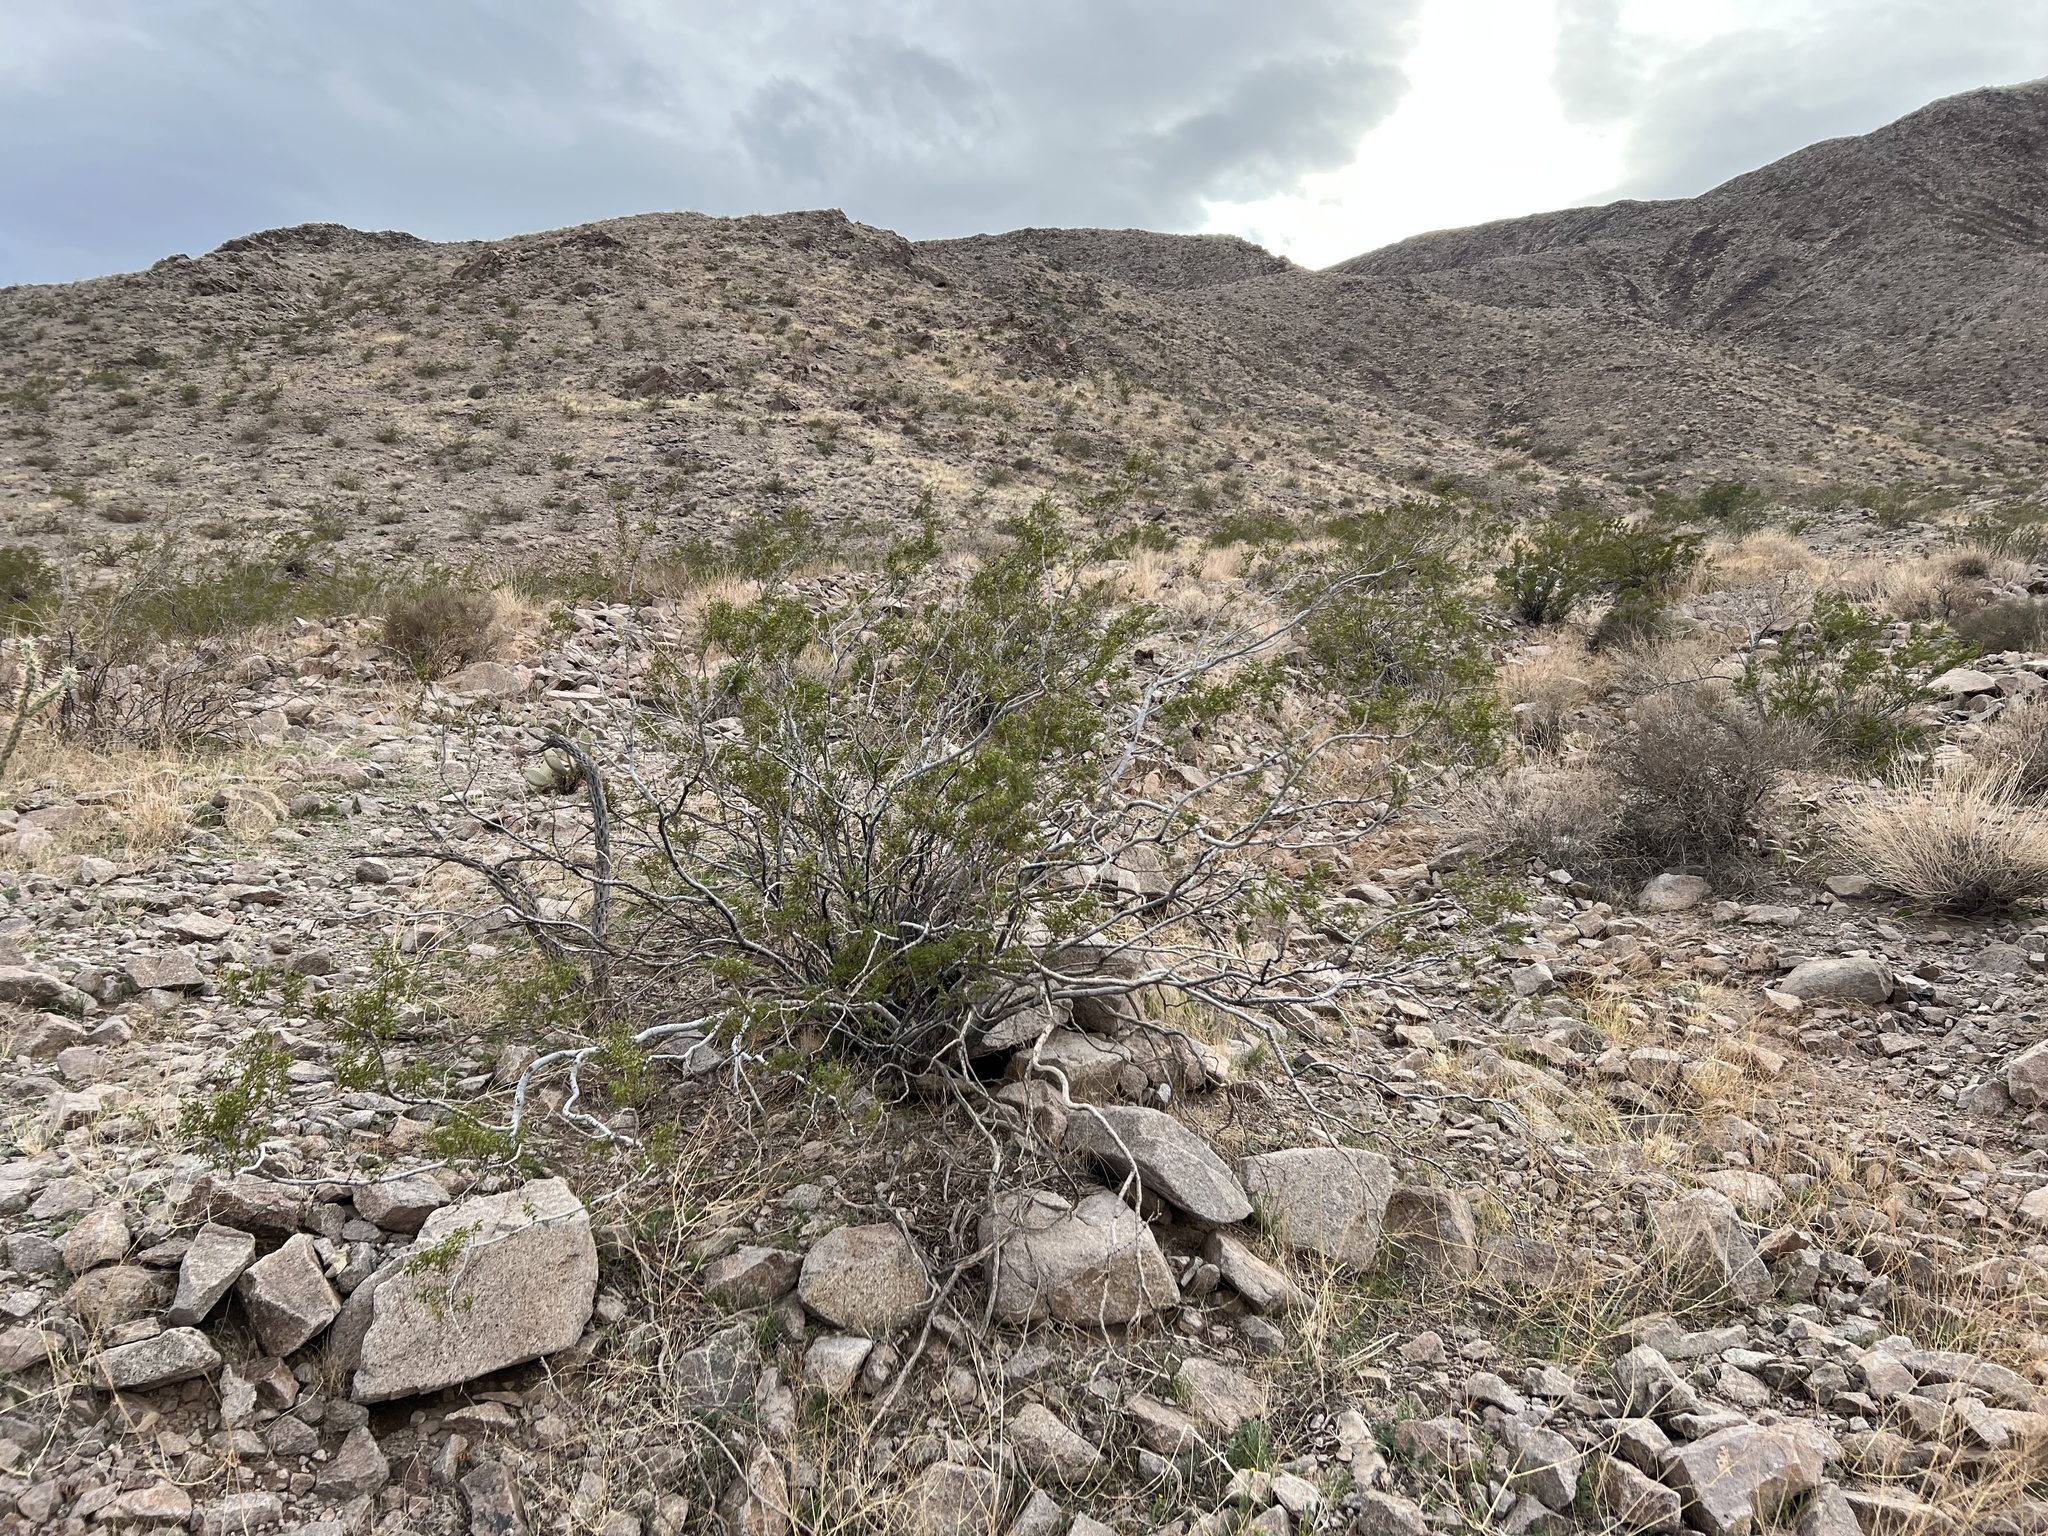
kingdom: Plantae
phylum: Tracheophyta
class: Magnoliopsida
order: Zygophyllales
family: Zygophyllaceae
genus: Larrea
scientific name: Larrea tridentata
